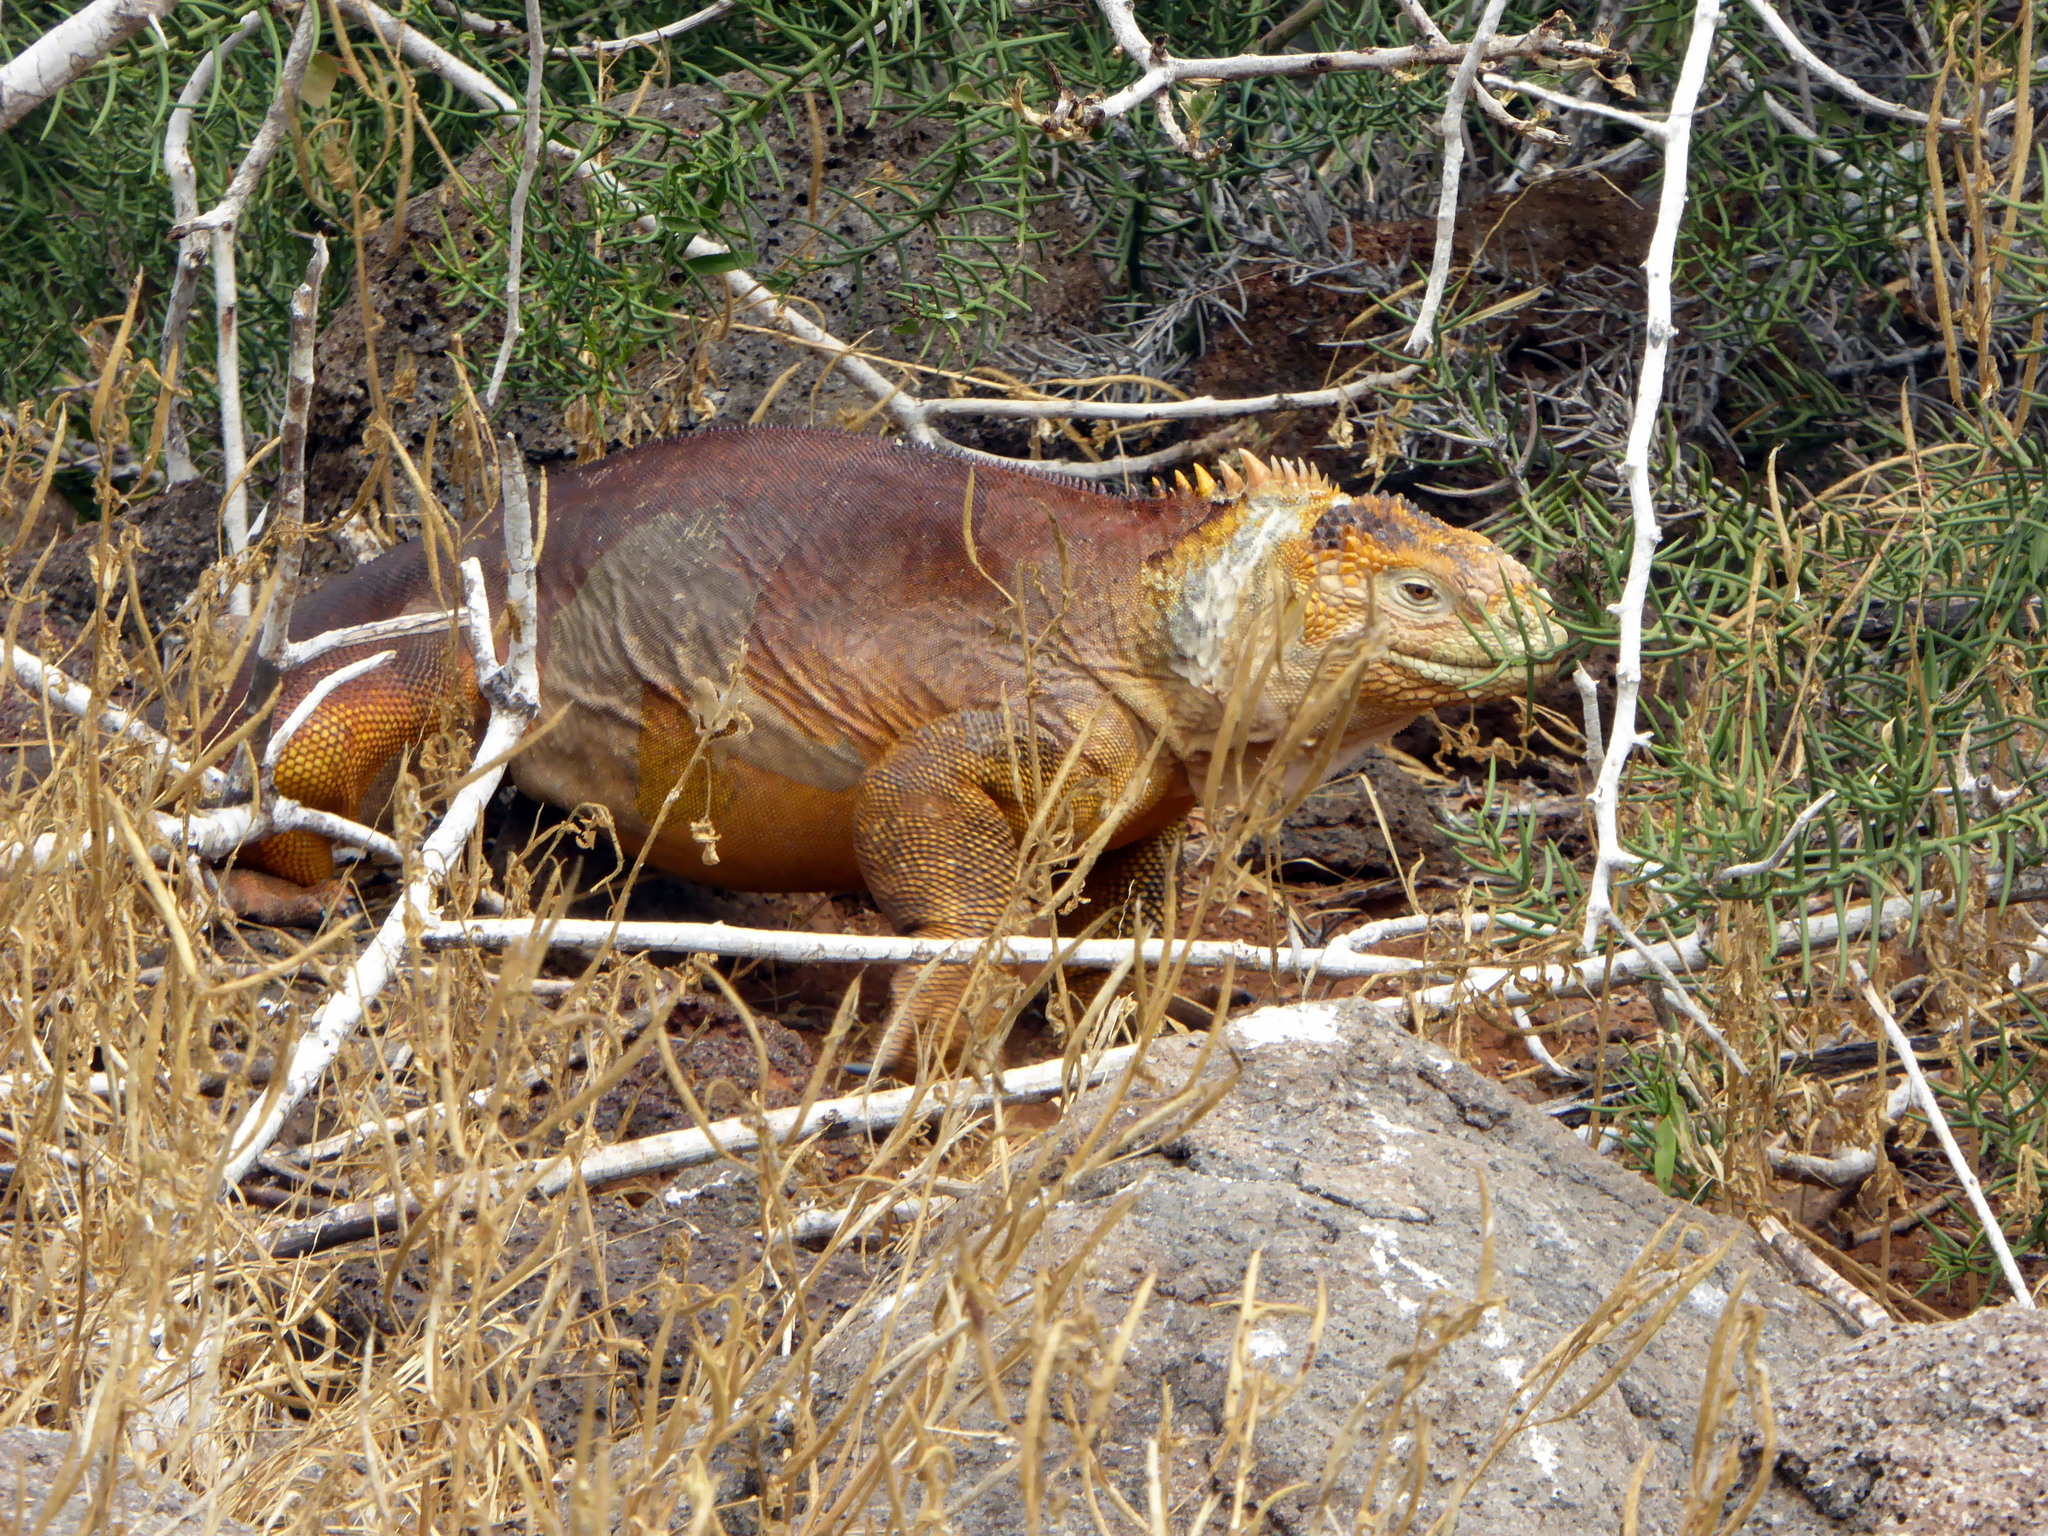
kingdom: Animalia
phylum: Chordata
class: Squamata
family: Iguanidae
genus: Conolophus
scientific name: Conolophus subcristatus
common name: Galapagos land iguana
